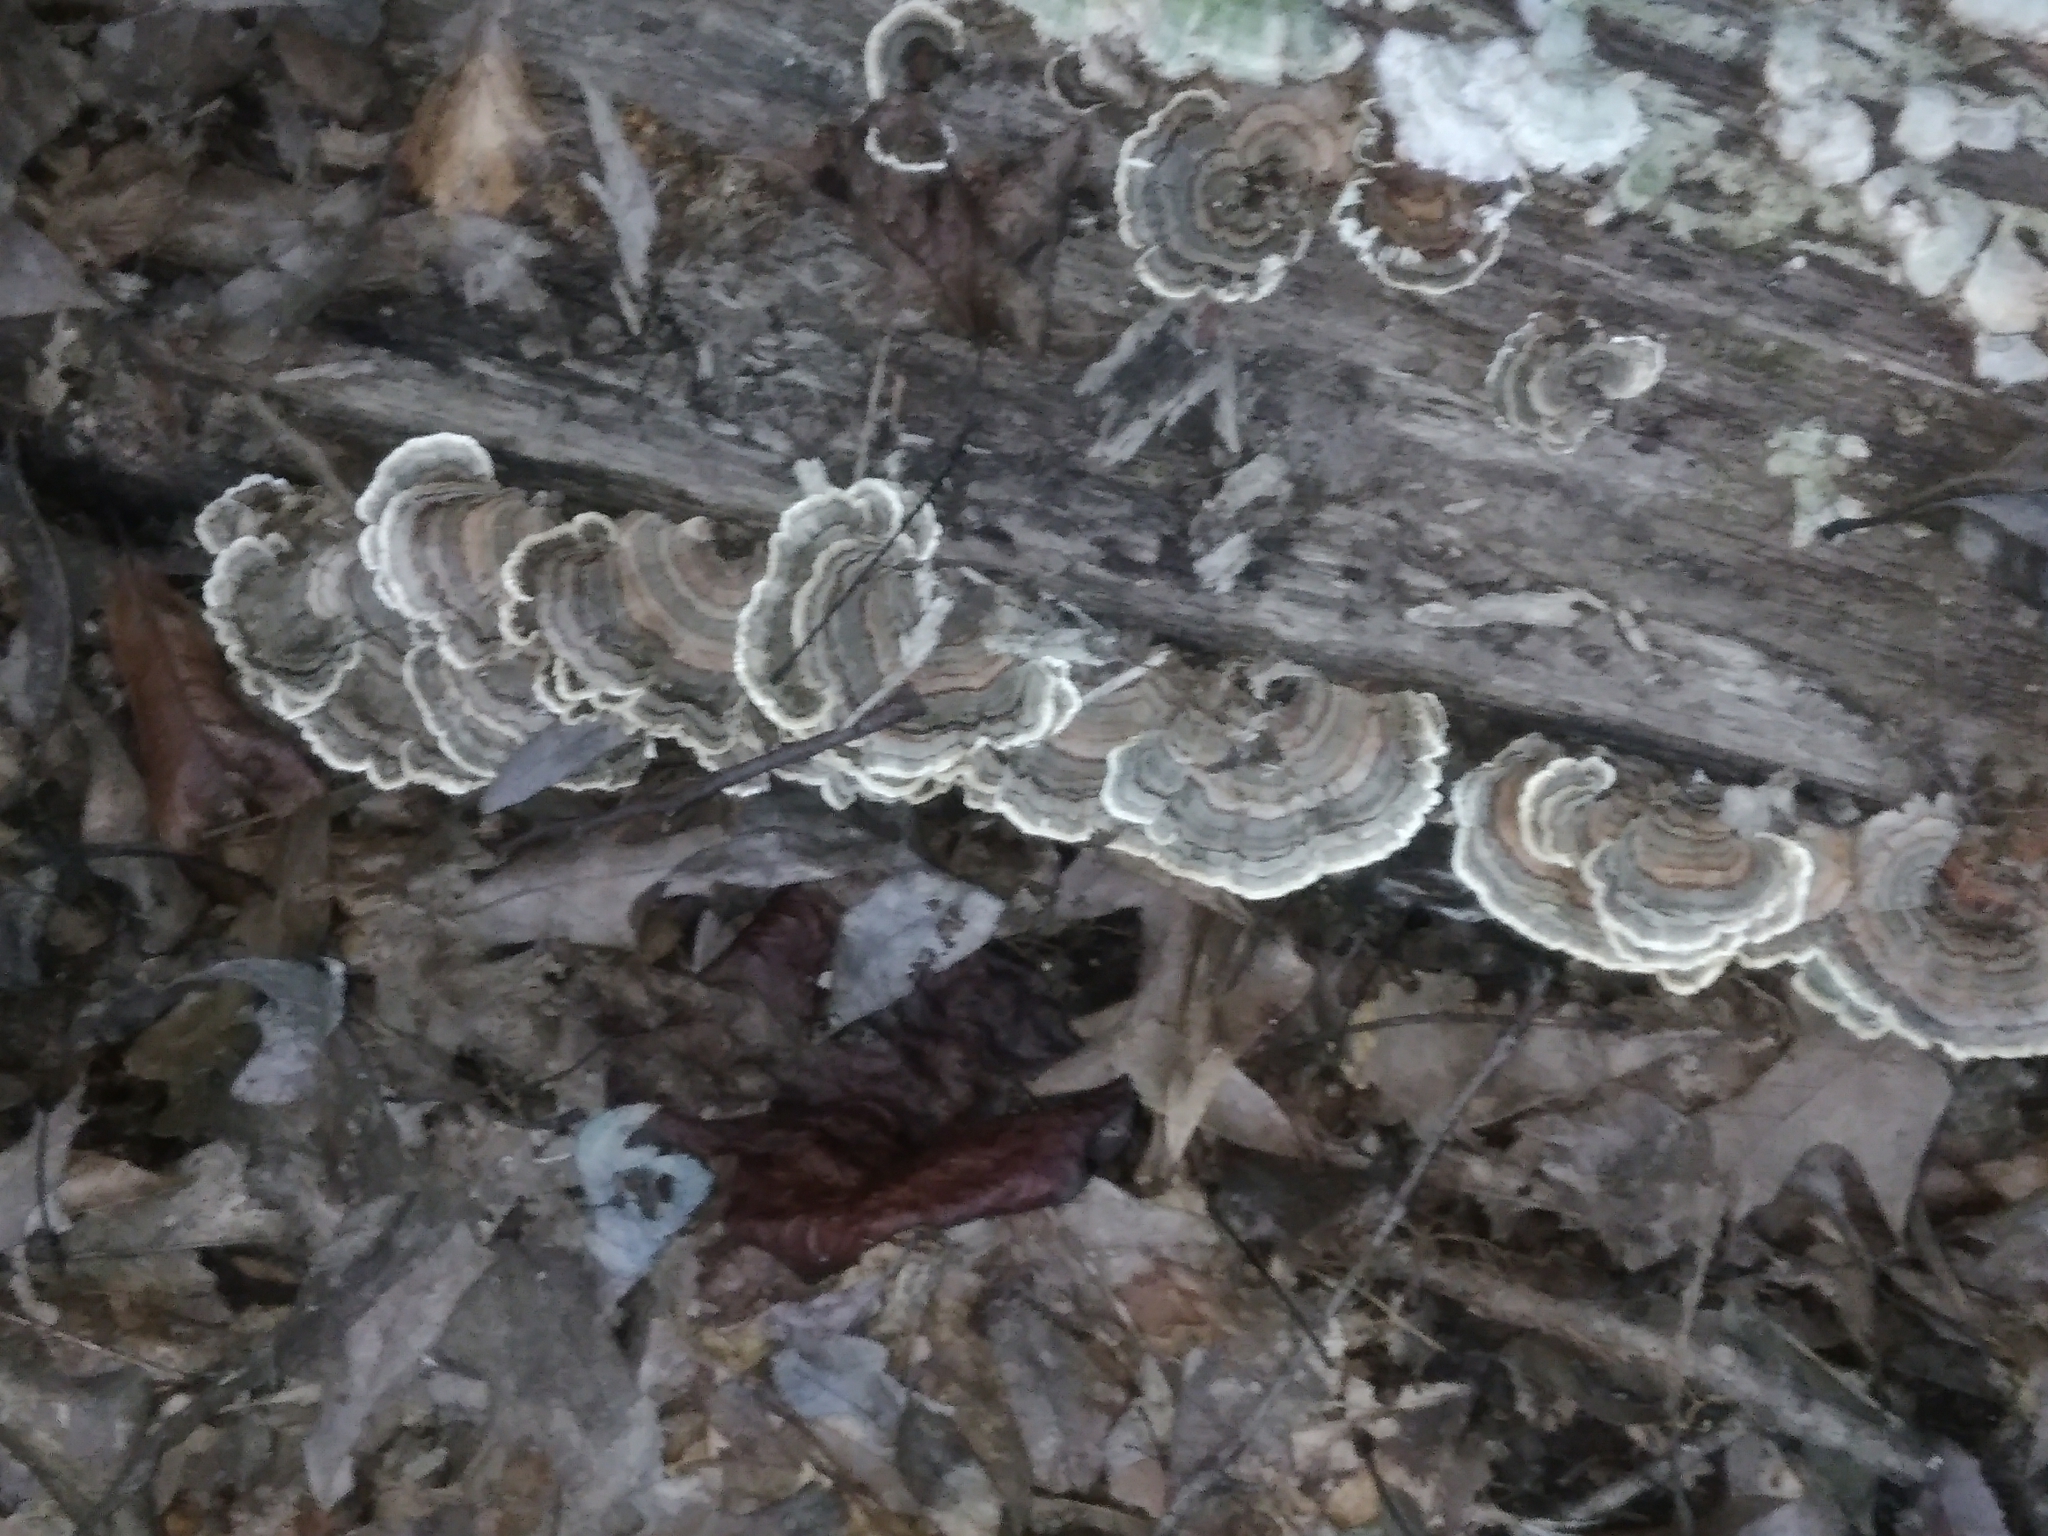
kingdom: Fungi
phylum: Basidiomycota
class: Agaricomycetes
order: Polyporales
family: Polyporaceae
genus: Trametes
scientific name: Trametes versicolor
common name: Turkeytail
